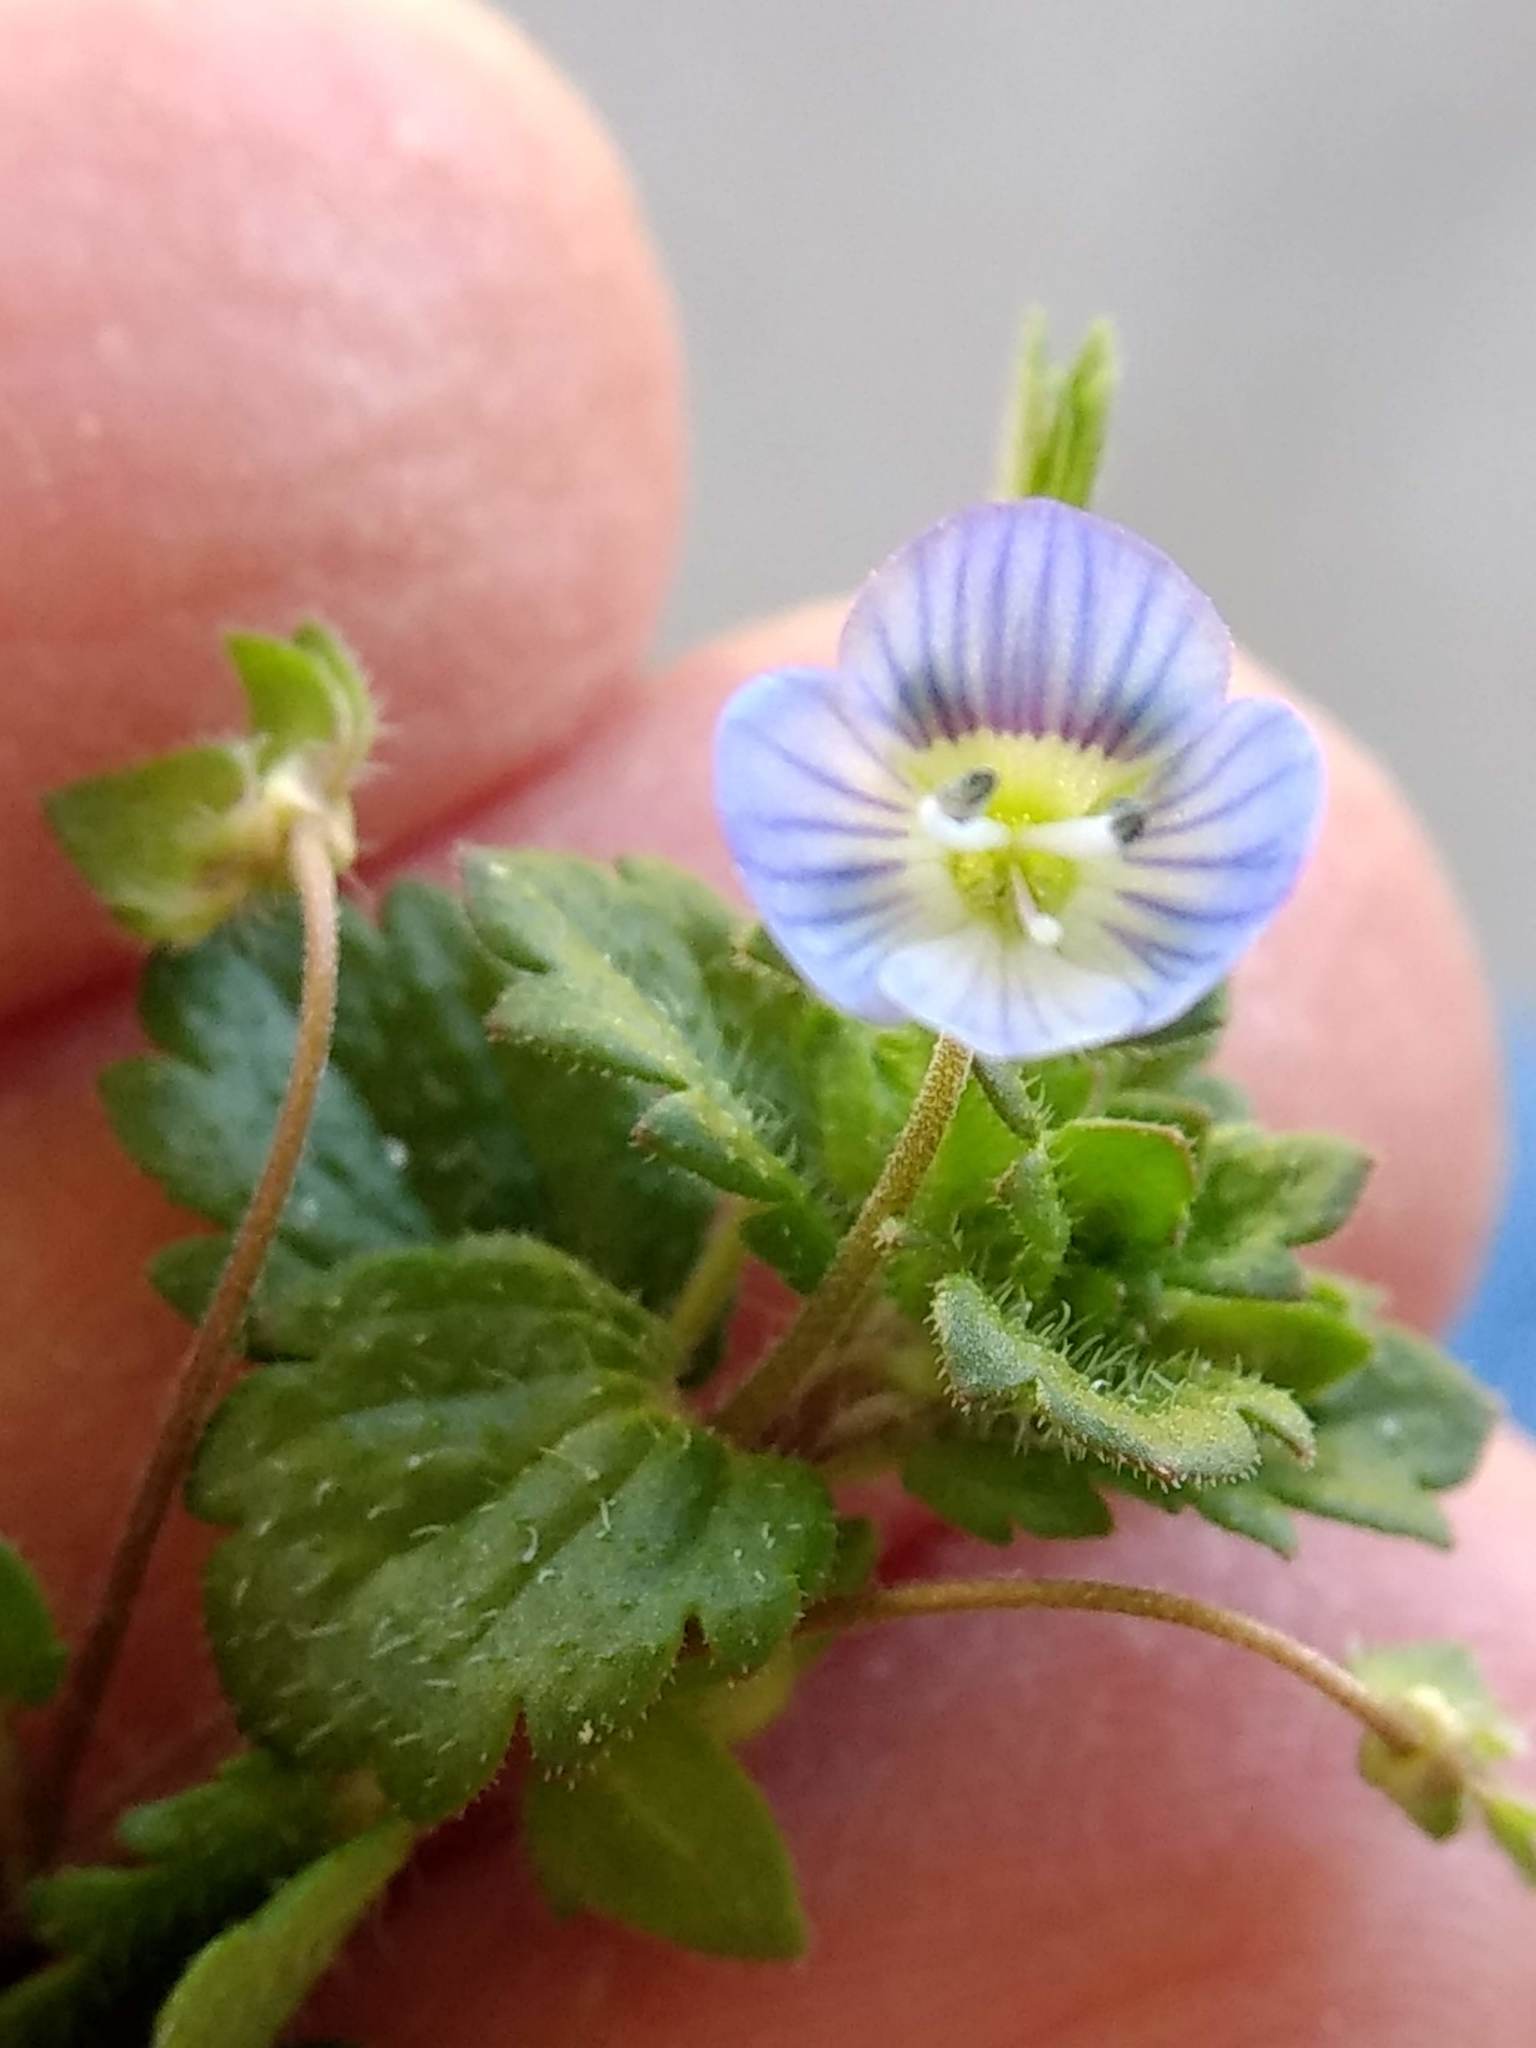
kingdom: Plantae
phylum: Tracheophyta
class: Magnoliopsida
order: Lamiales
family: Plantaginaceae
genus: Veronica
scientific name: Veronica persica
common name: Common field-speedwell
